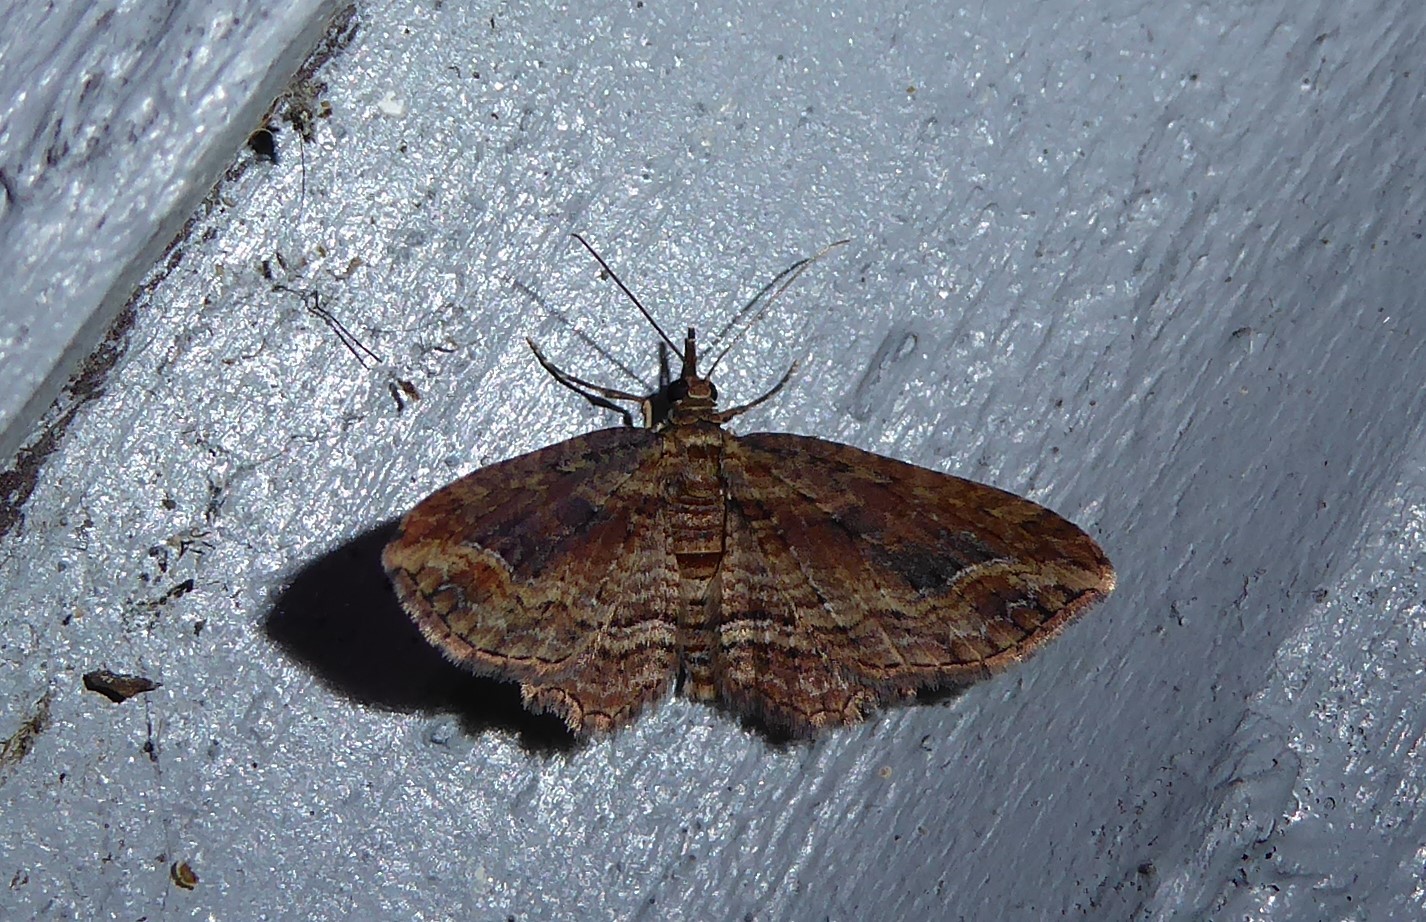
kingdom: Animalia
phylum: Arthropoda
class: Insecta
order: Lepidoptera
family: Geometridae
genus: Chloroclystis
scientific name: Chloroclystis filata
